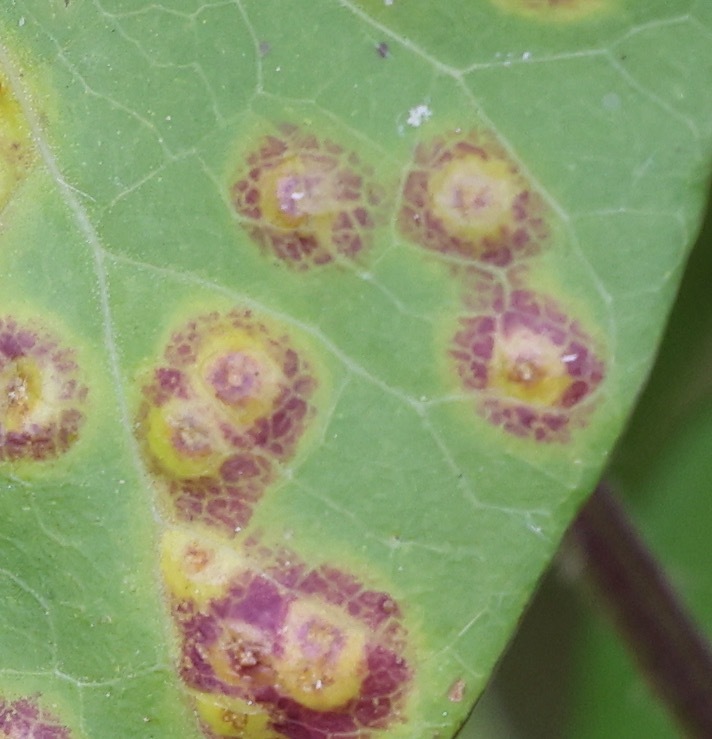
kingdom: Fungi
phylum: Basidiomycota
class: Pucciniomycetes
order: Pucciniales
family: Pucciniaceae
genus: Puccinia
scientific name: Puccinia convolvuli
